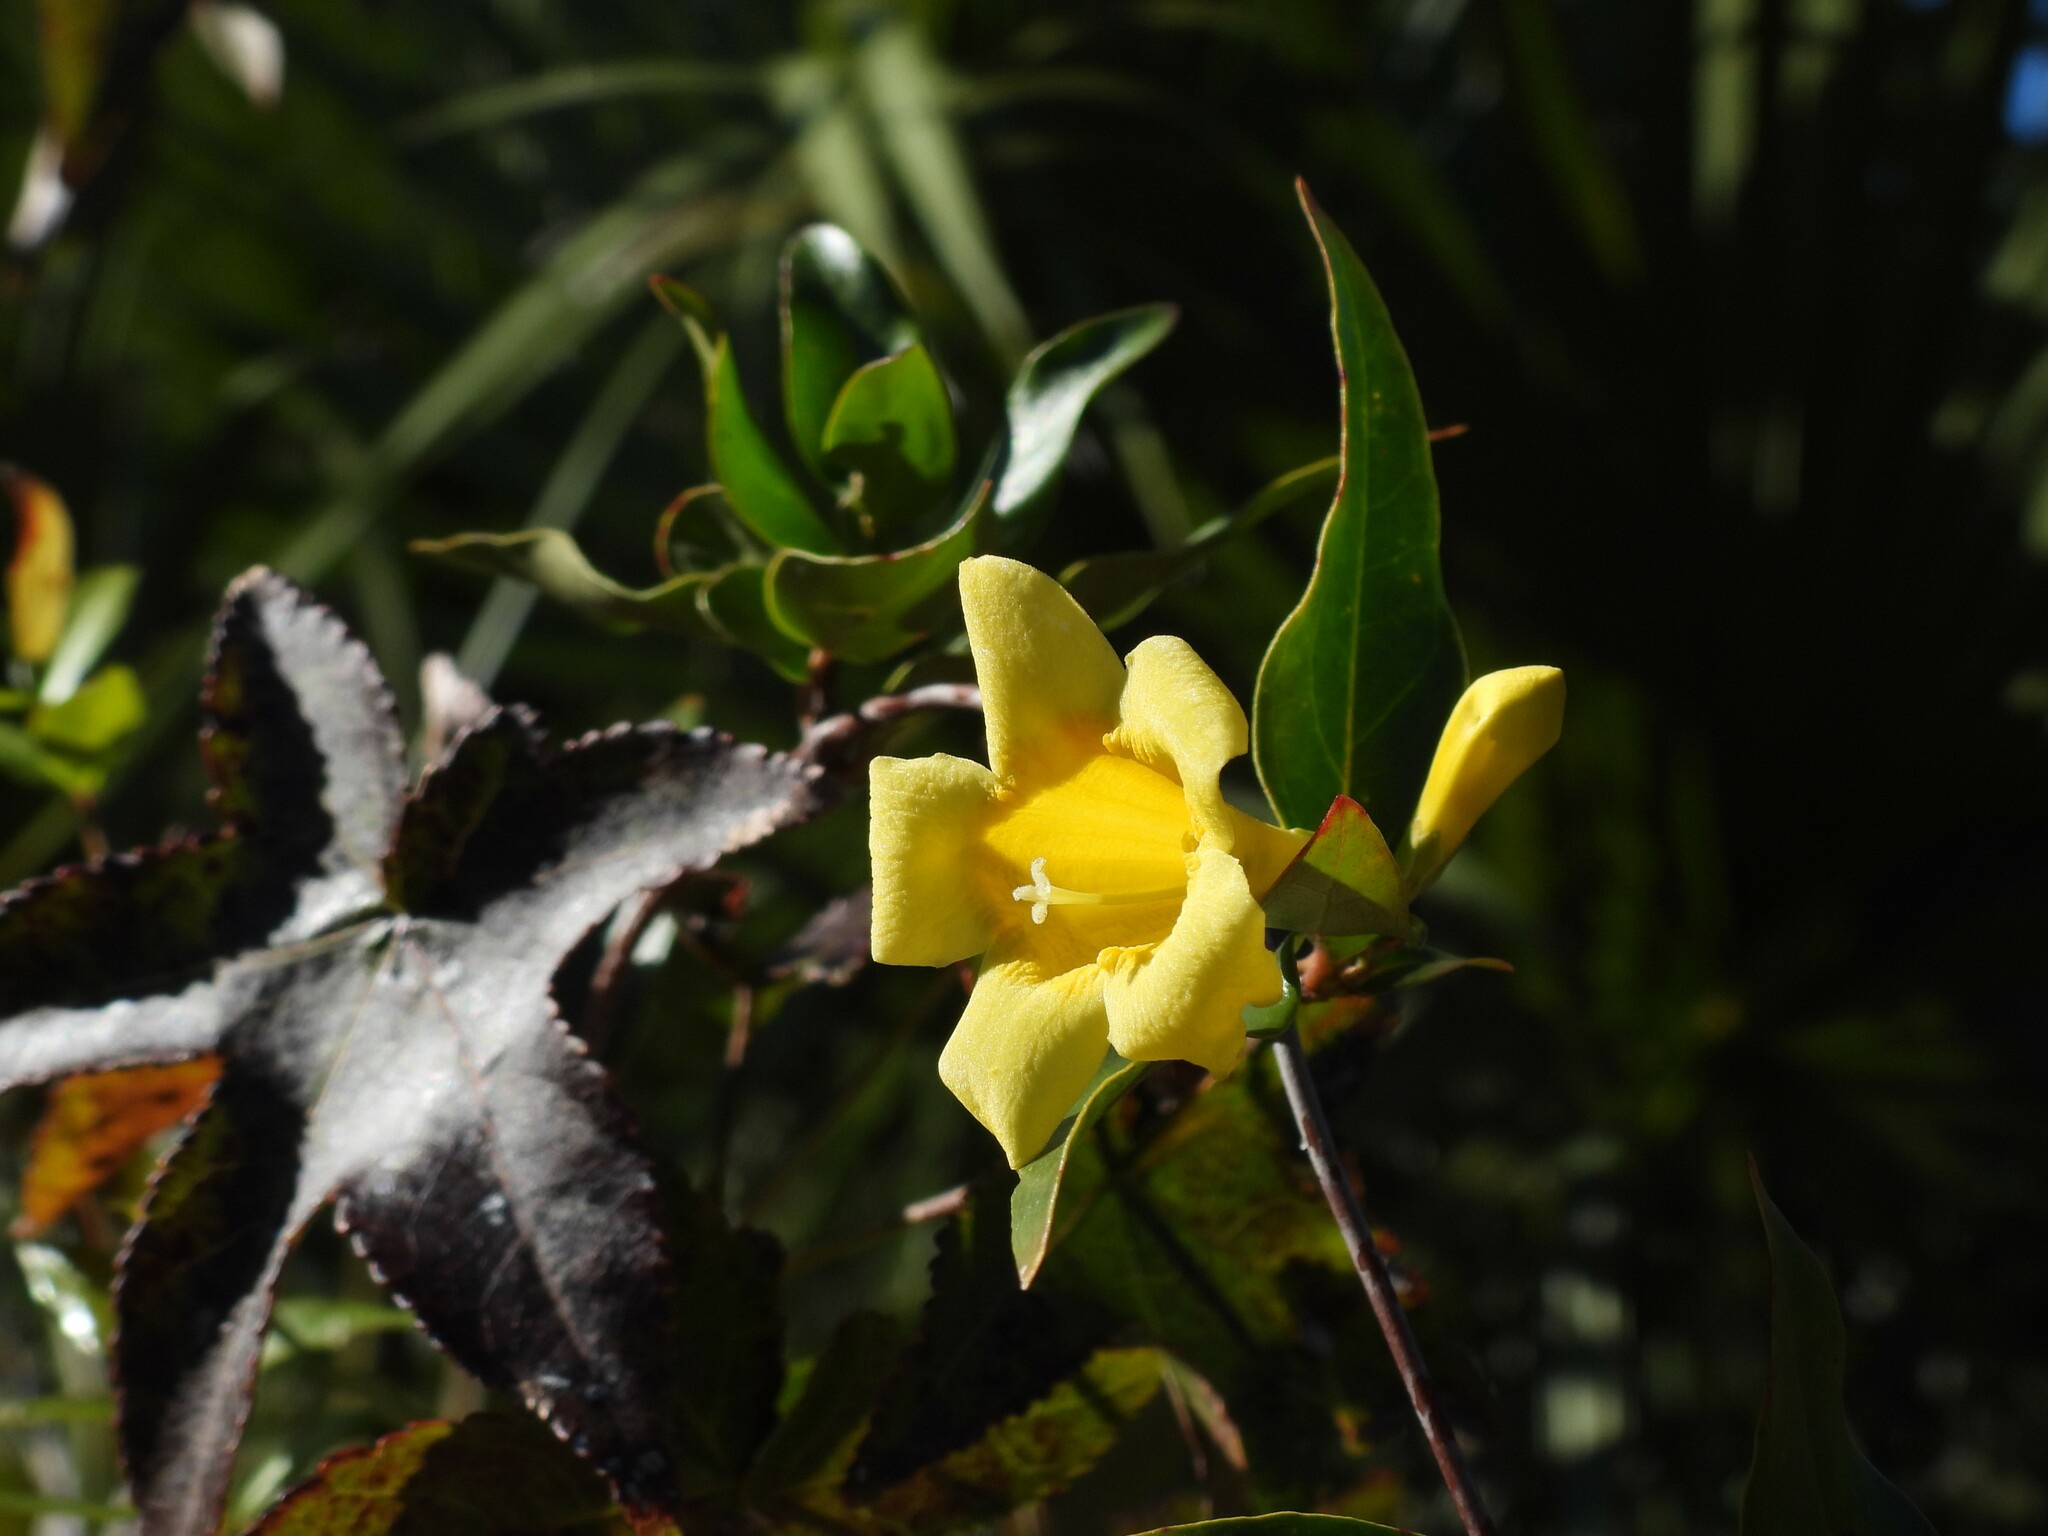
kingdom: Plantae
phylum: Tracheophyta
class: Magnoliopsida
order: Gentianales
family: Gelsemiaceae
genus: Gelsemium
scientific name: Gelsemium sempervirens
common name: Carolina-jasmine
